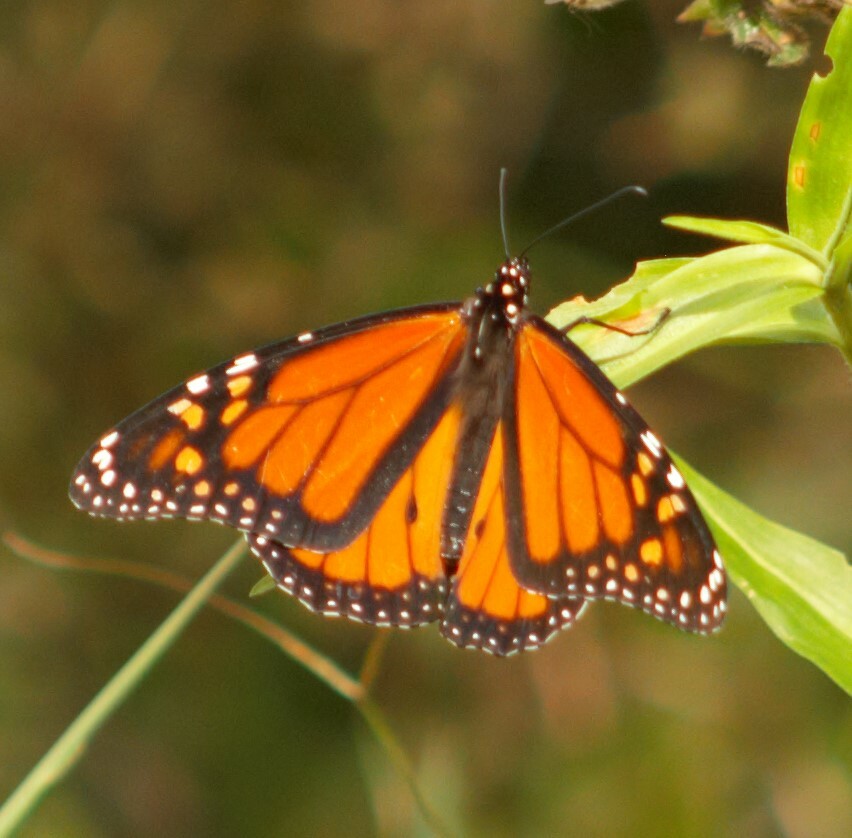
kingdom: Animalia
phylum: Arthropoda
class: Insecta
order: Lepidoptera
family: Nymphalidae
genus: Danaus
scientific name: Danaus plexippus
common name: Monarch
